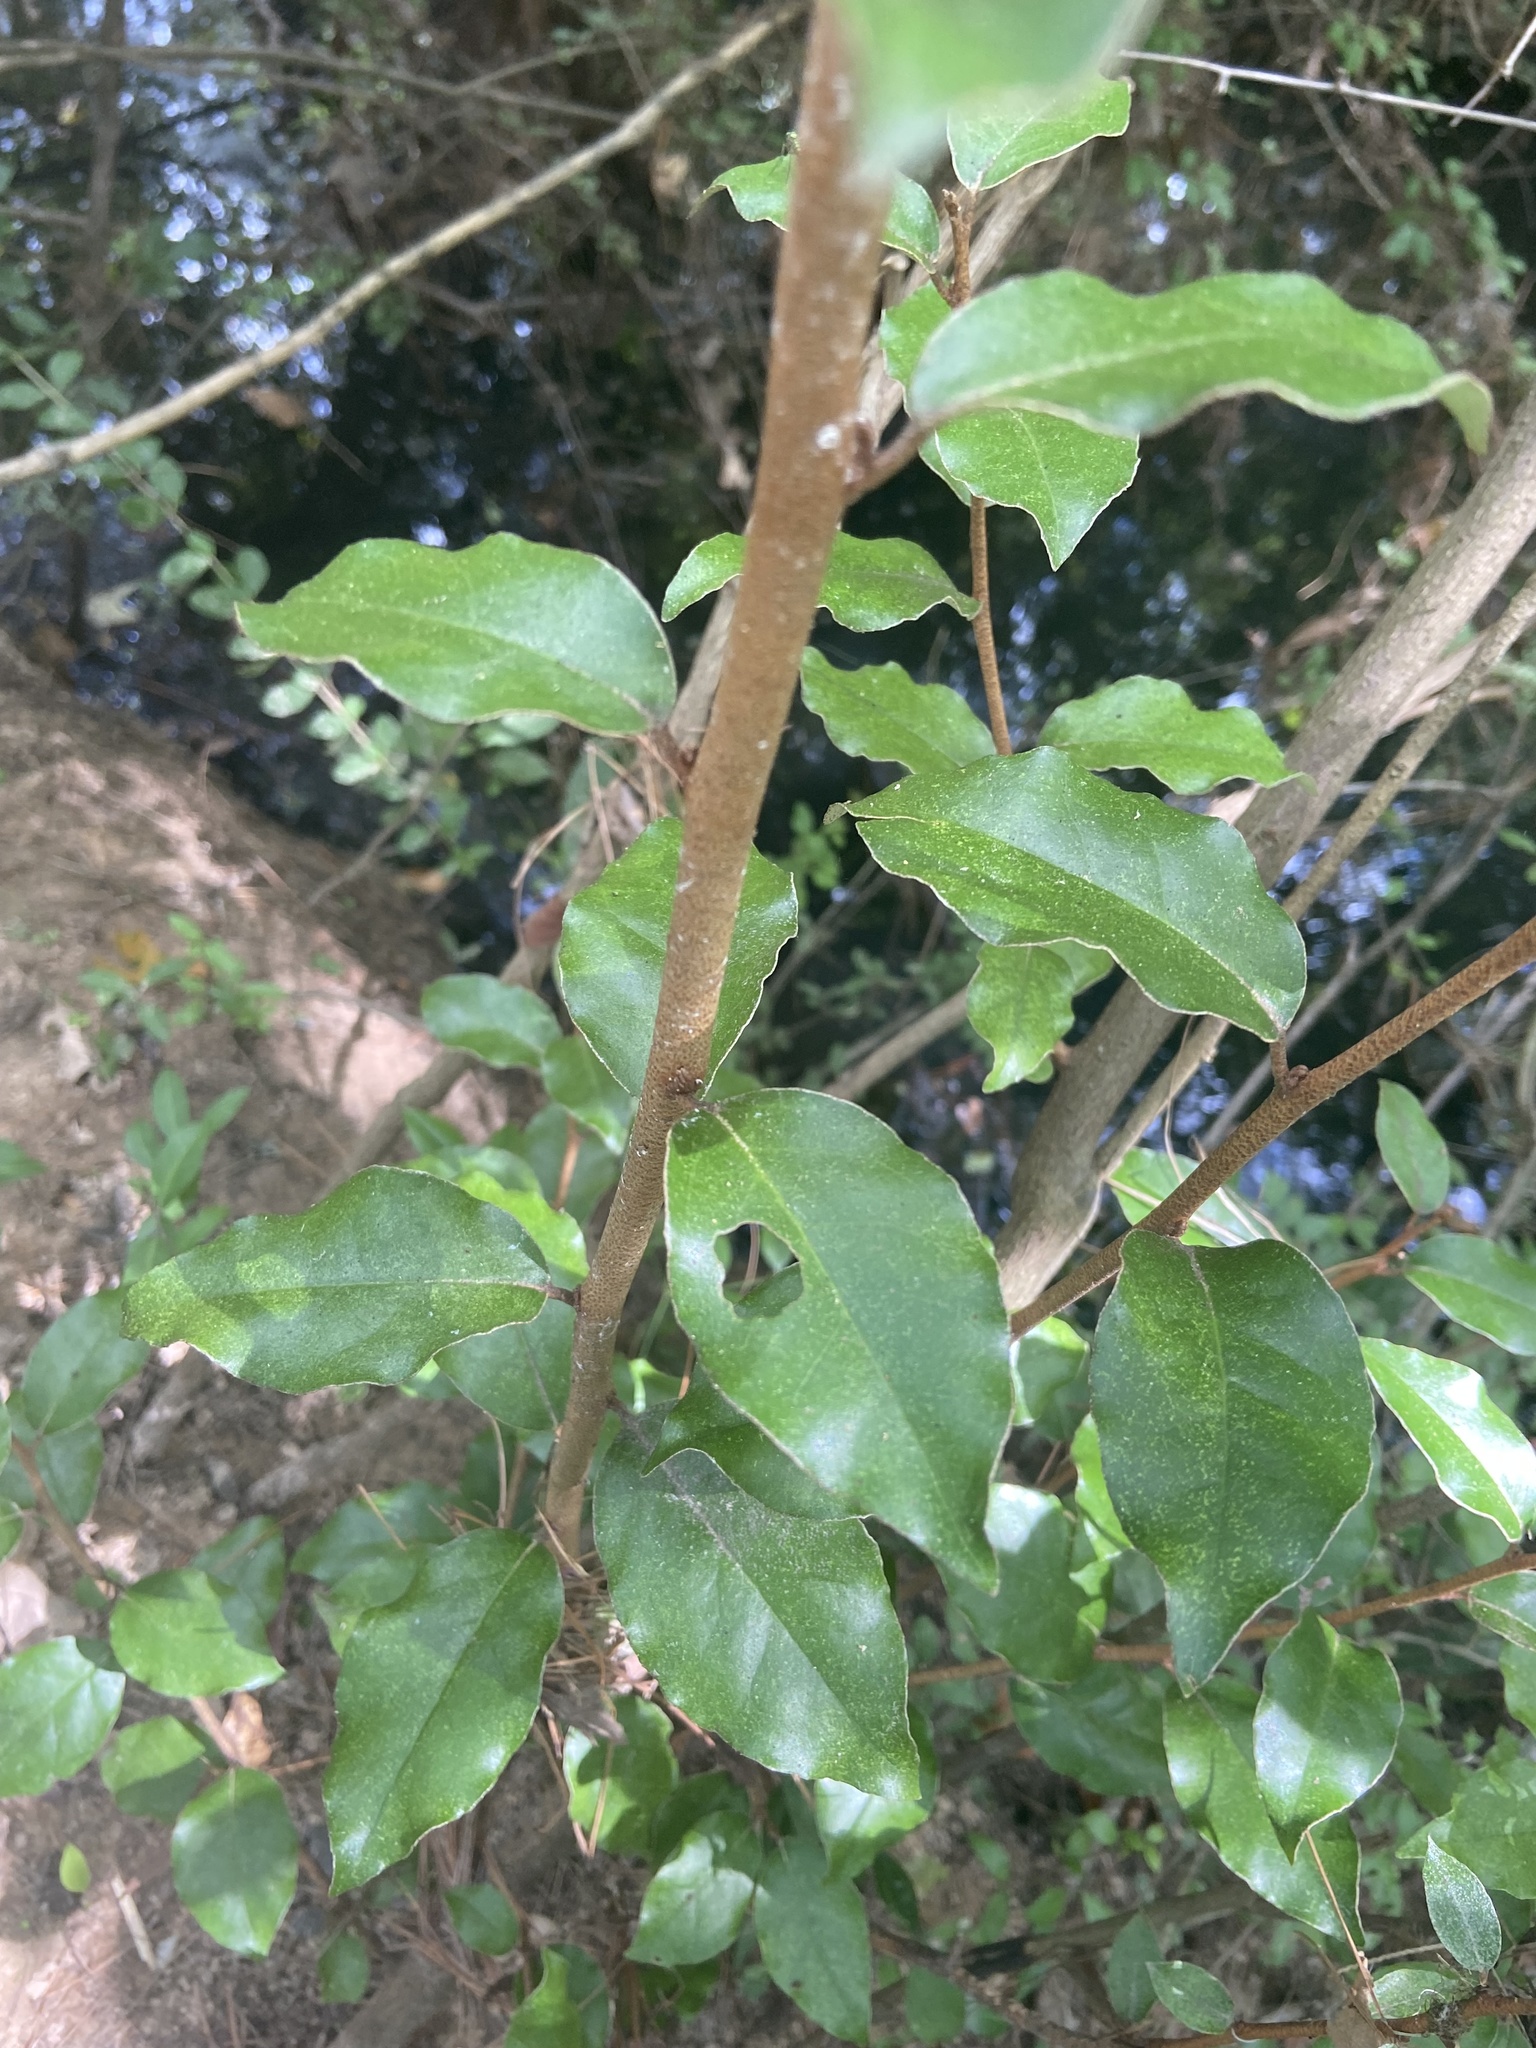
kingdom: Plantae
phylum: Tracheophyta
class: Magnoliopsida
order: Rosales
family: Elaeagnaceae
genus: Elaeagnus
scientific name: Elaeagnus pungens
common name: Spiny oleaster
